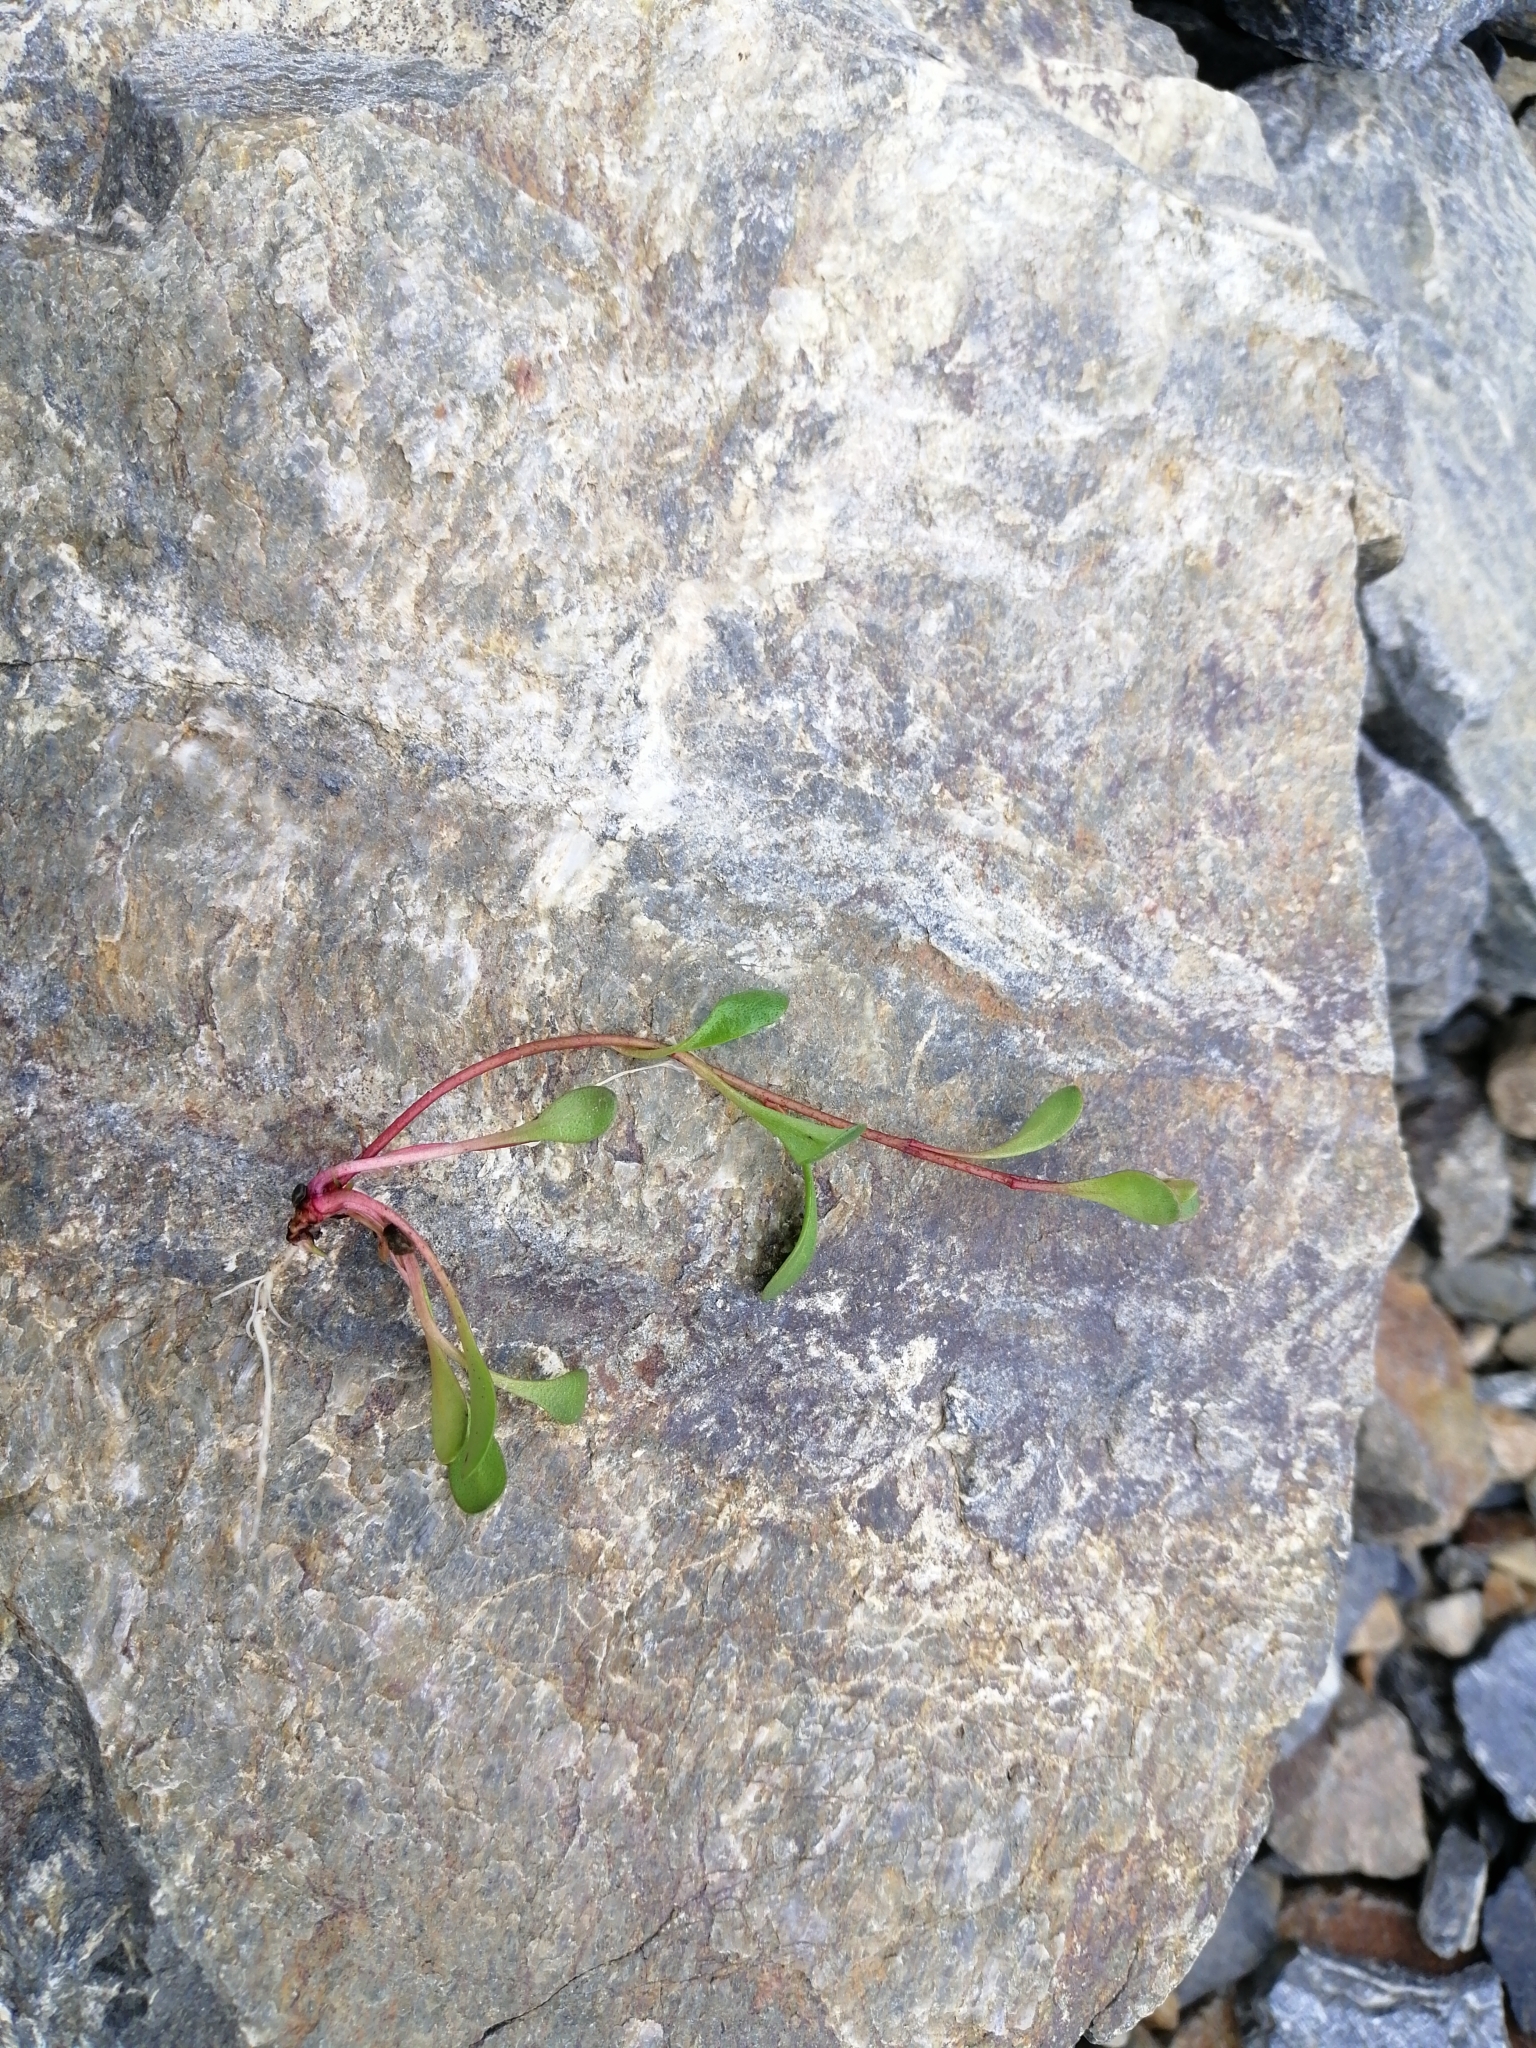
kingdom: Plantae
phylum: Tracheophyta
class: Magnoliopsida
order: Ericales
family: Primulaceae
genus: Samolus
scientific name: Samolus repens
